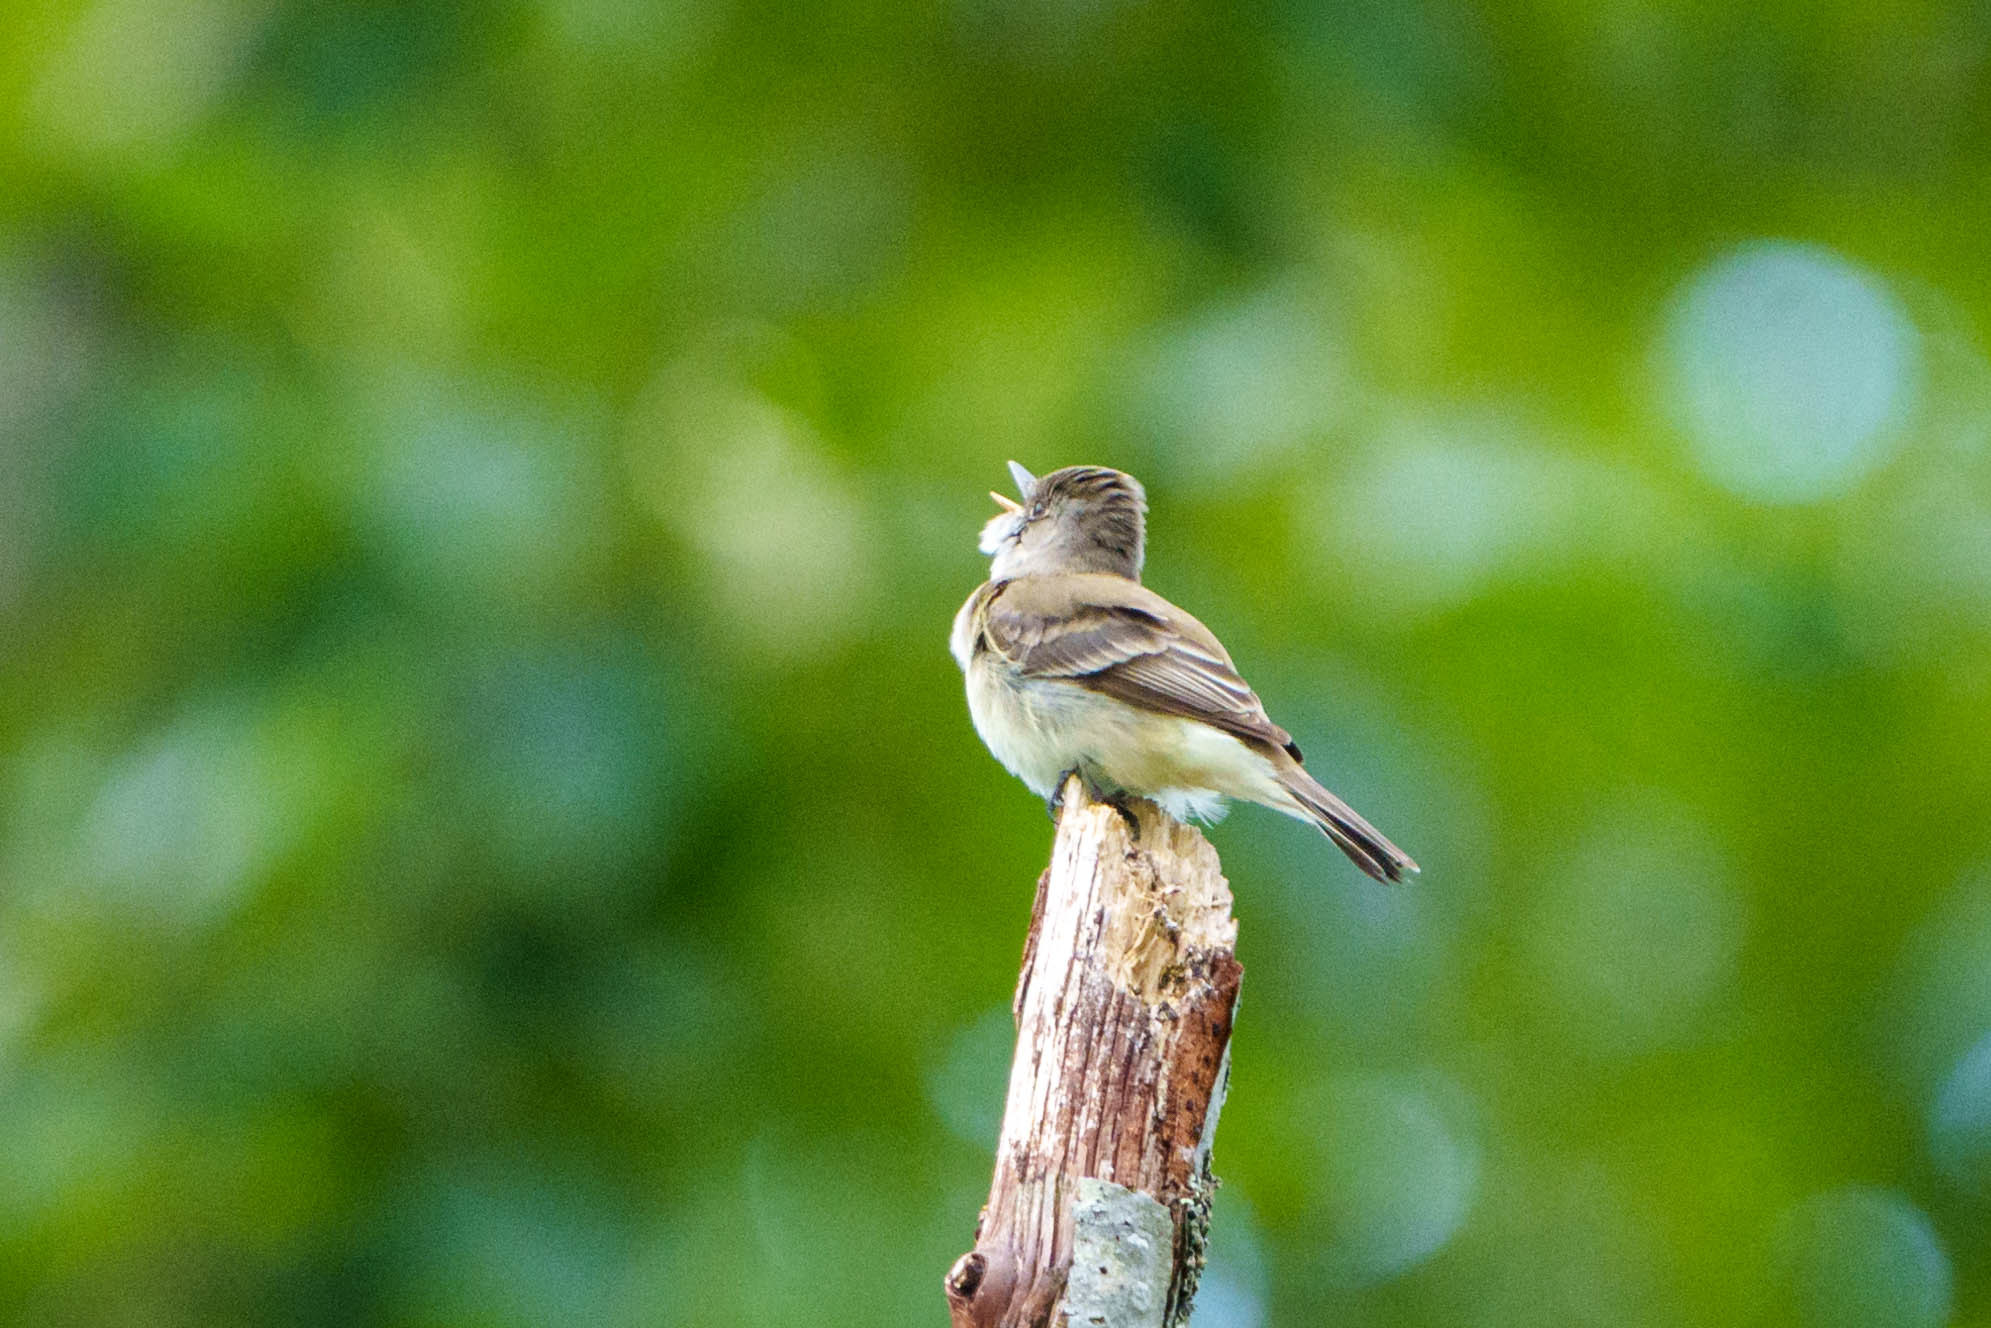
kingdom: Animalia
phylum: Chordata
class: Aves
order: Passeriformes
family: Tyrannidae
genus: Empidonax
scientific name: Empidonax traillii
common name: Willow flycatcher
